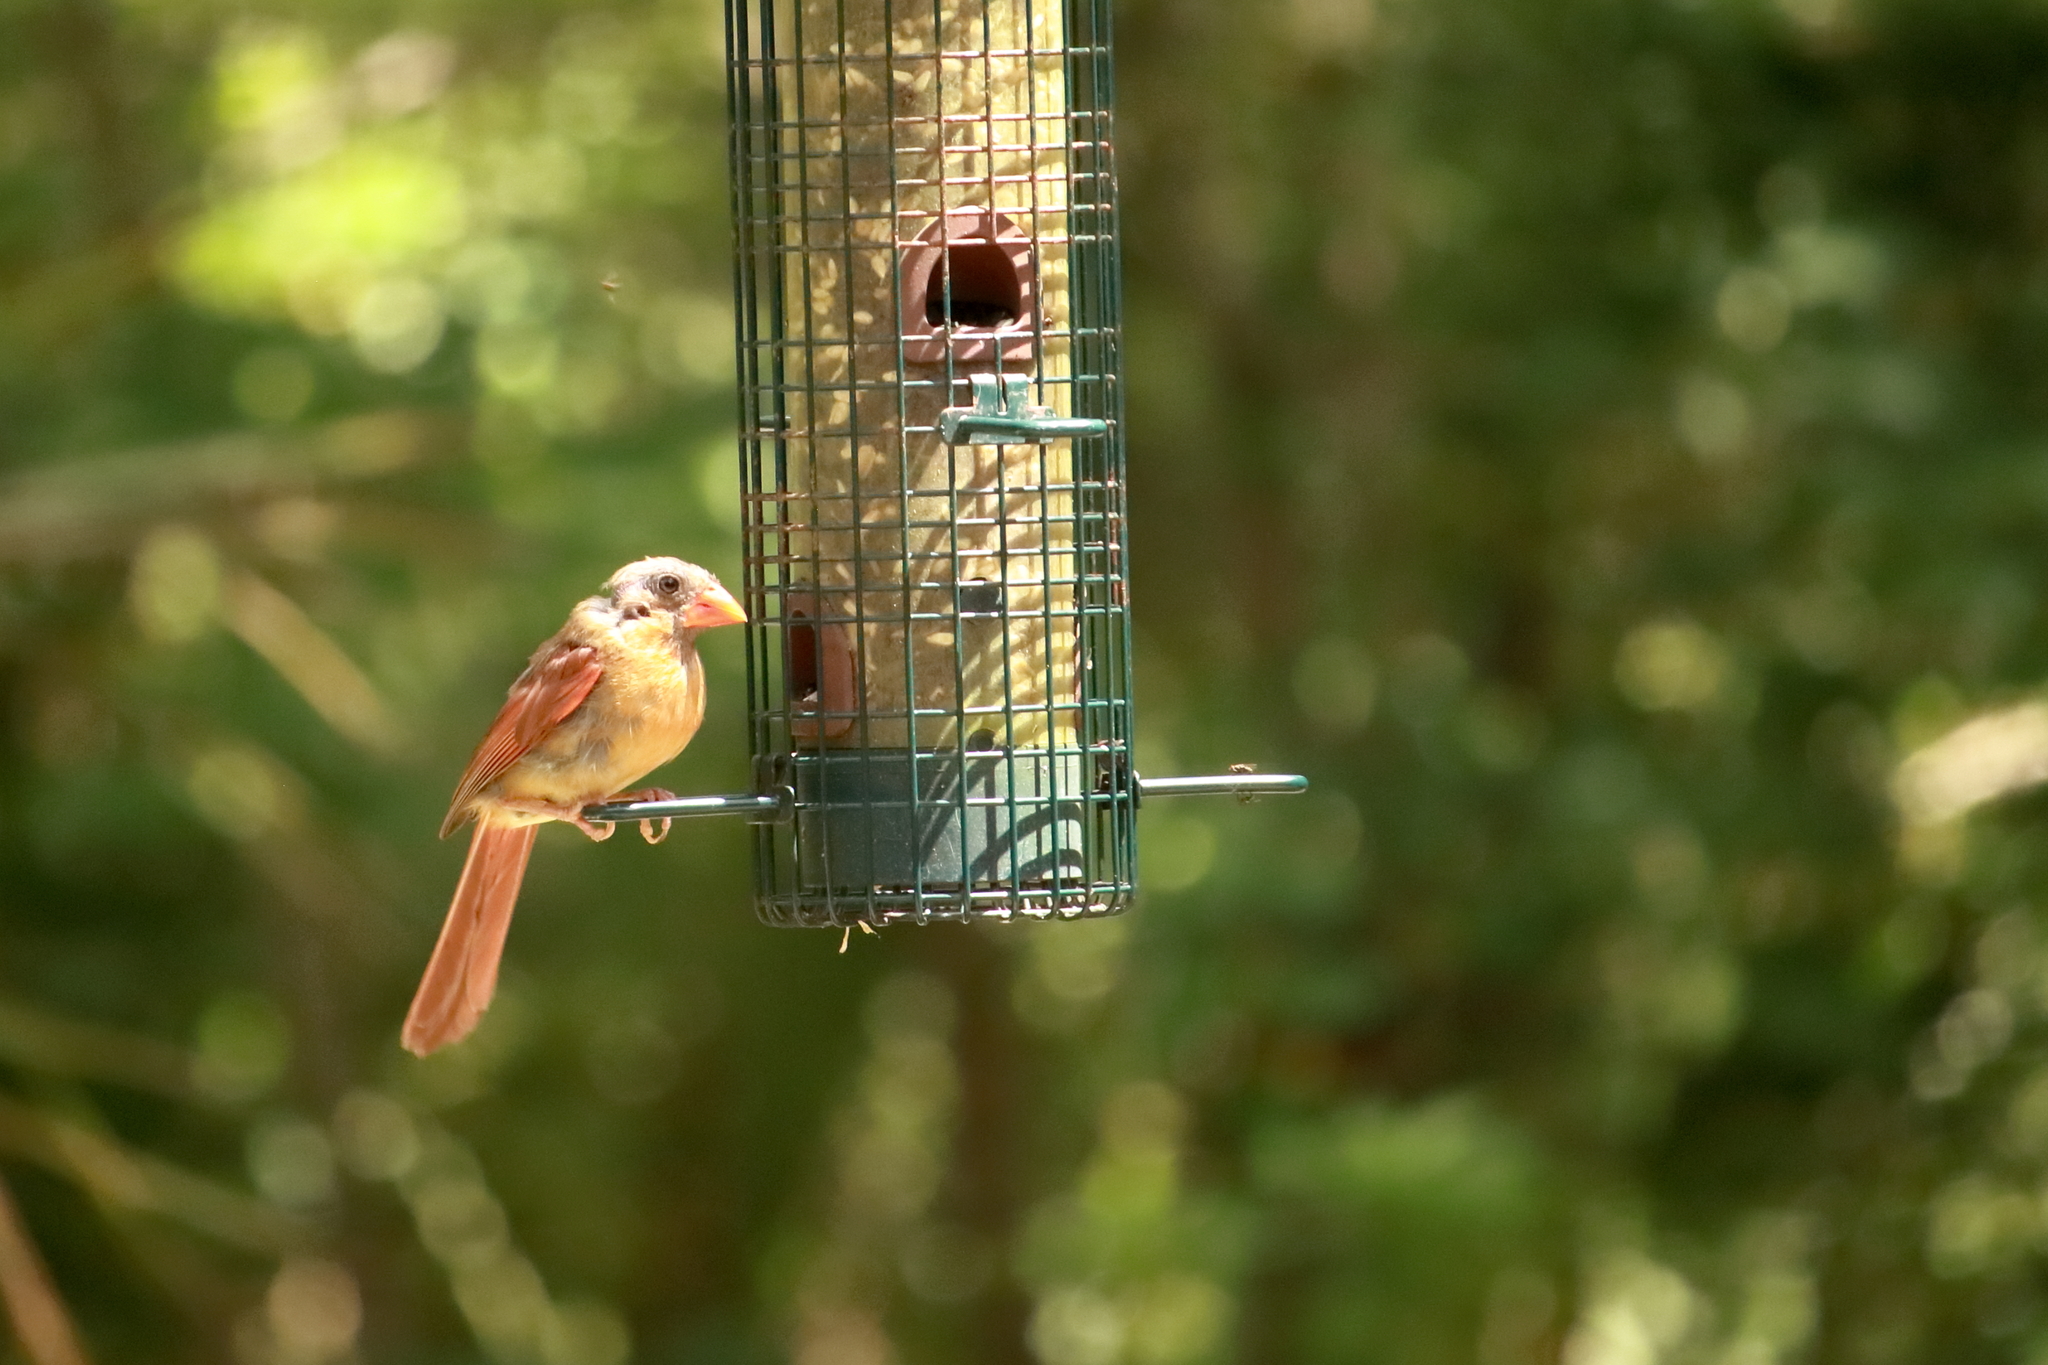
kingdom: Animalia
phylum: Chordata
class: Aves
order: Passeriformes
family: Cardinalidae
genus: Cardinalis
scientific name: Cardinalis cardinalis
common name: Northern cardinal
